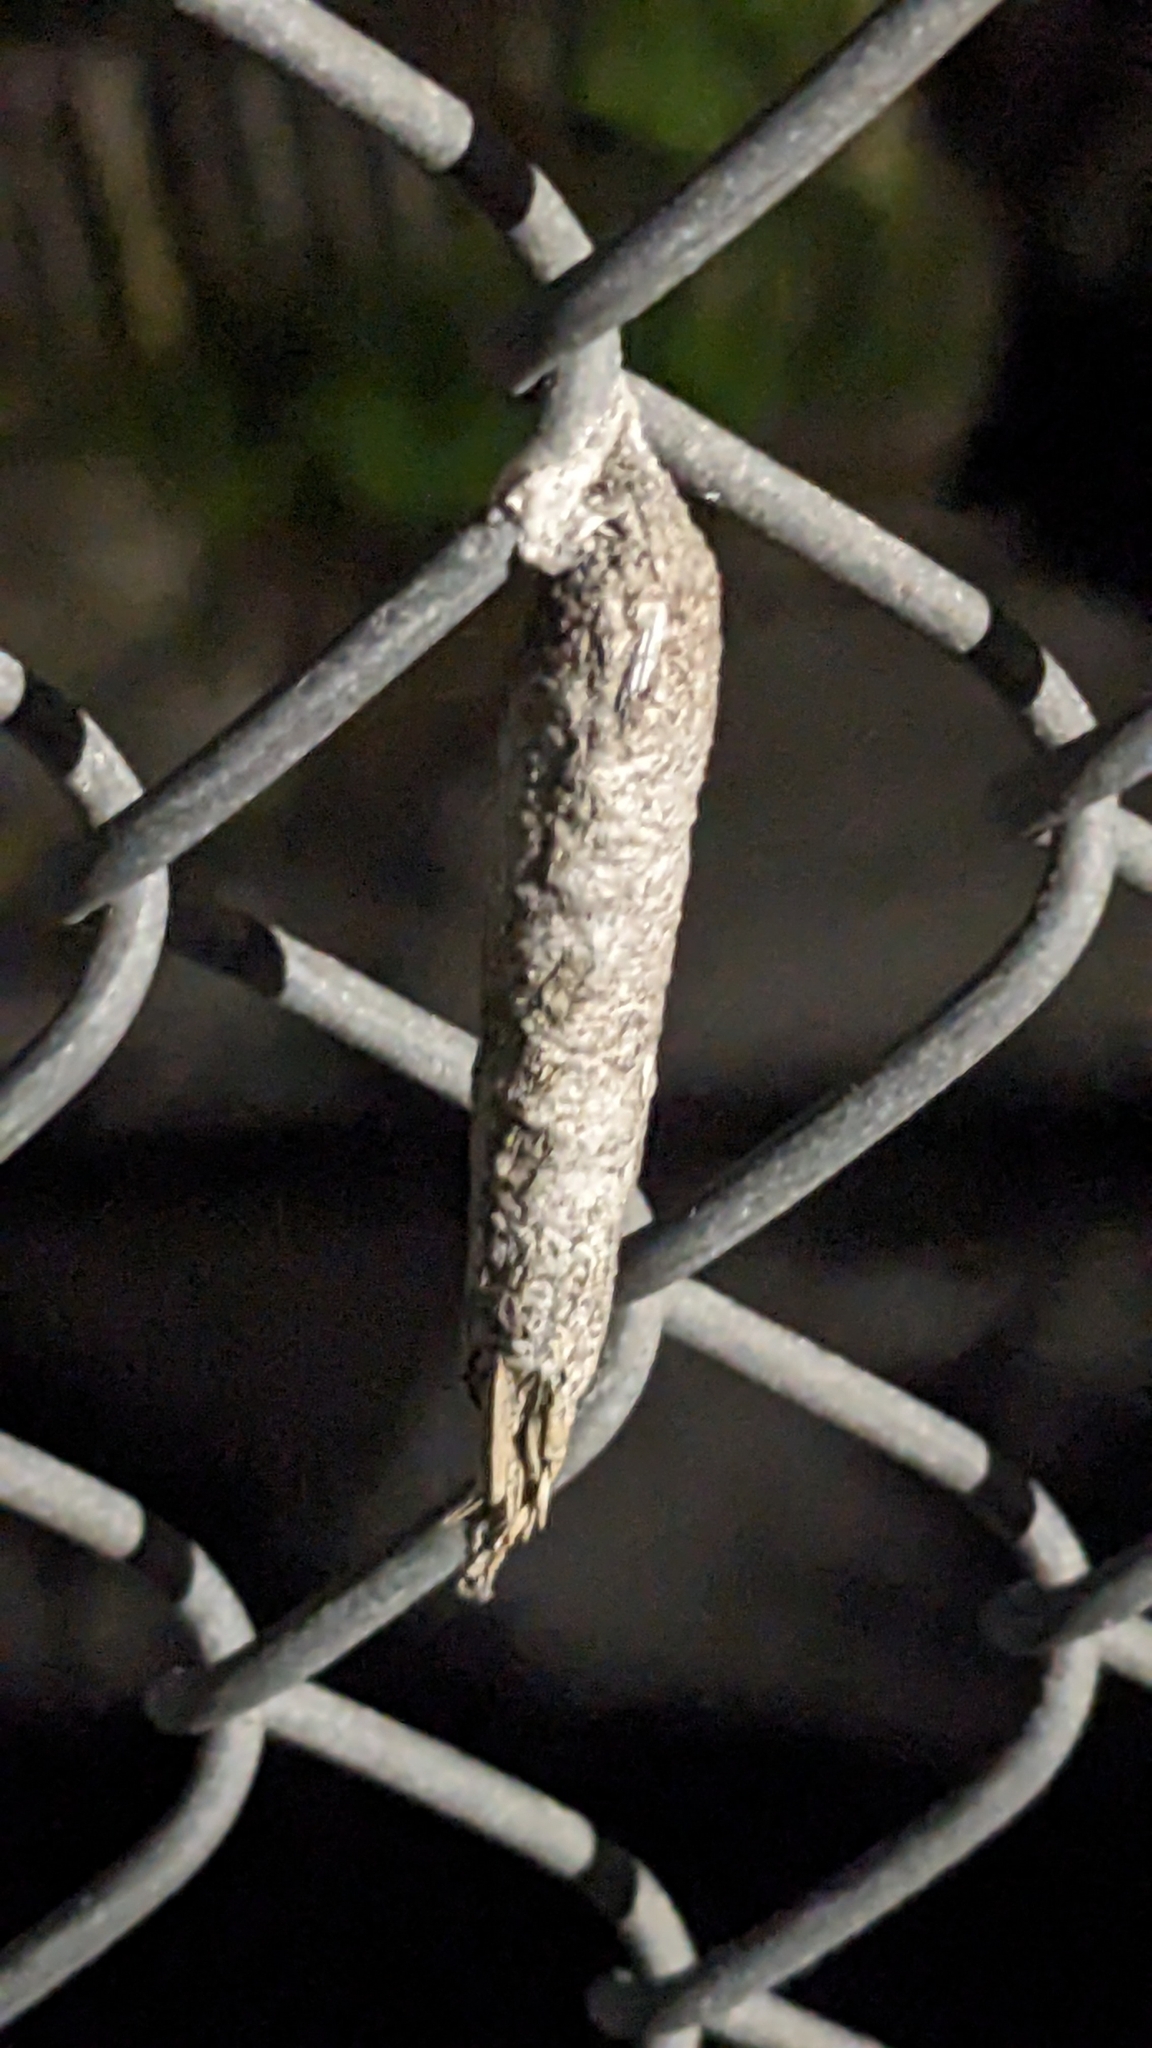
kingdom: Animalia
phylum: Arthropoda
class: Insecta
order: Lepidoptera
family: Psychidae
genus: Liothula
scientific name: Liothula omnivora
